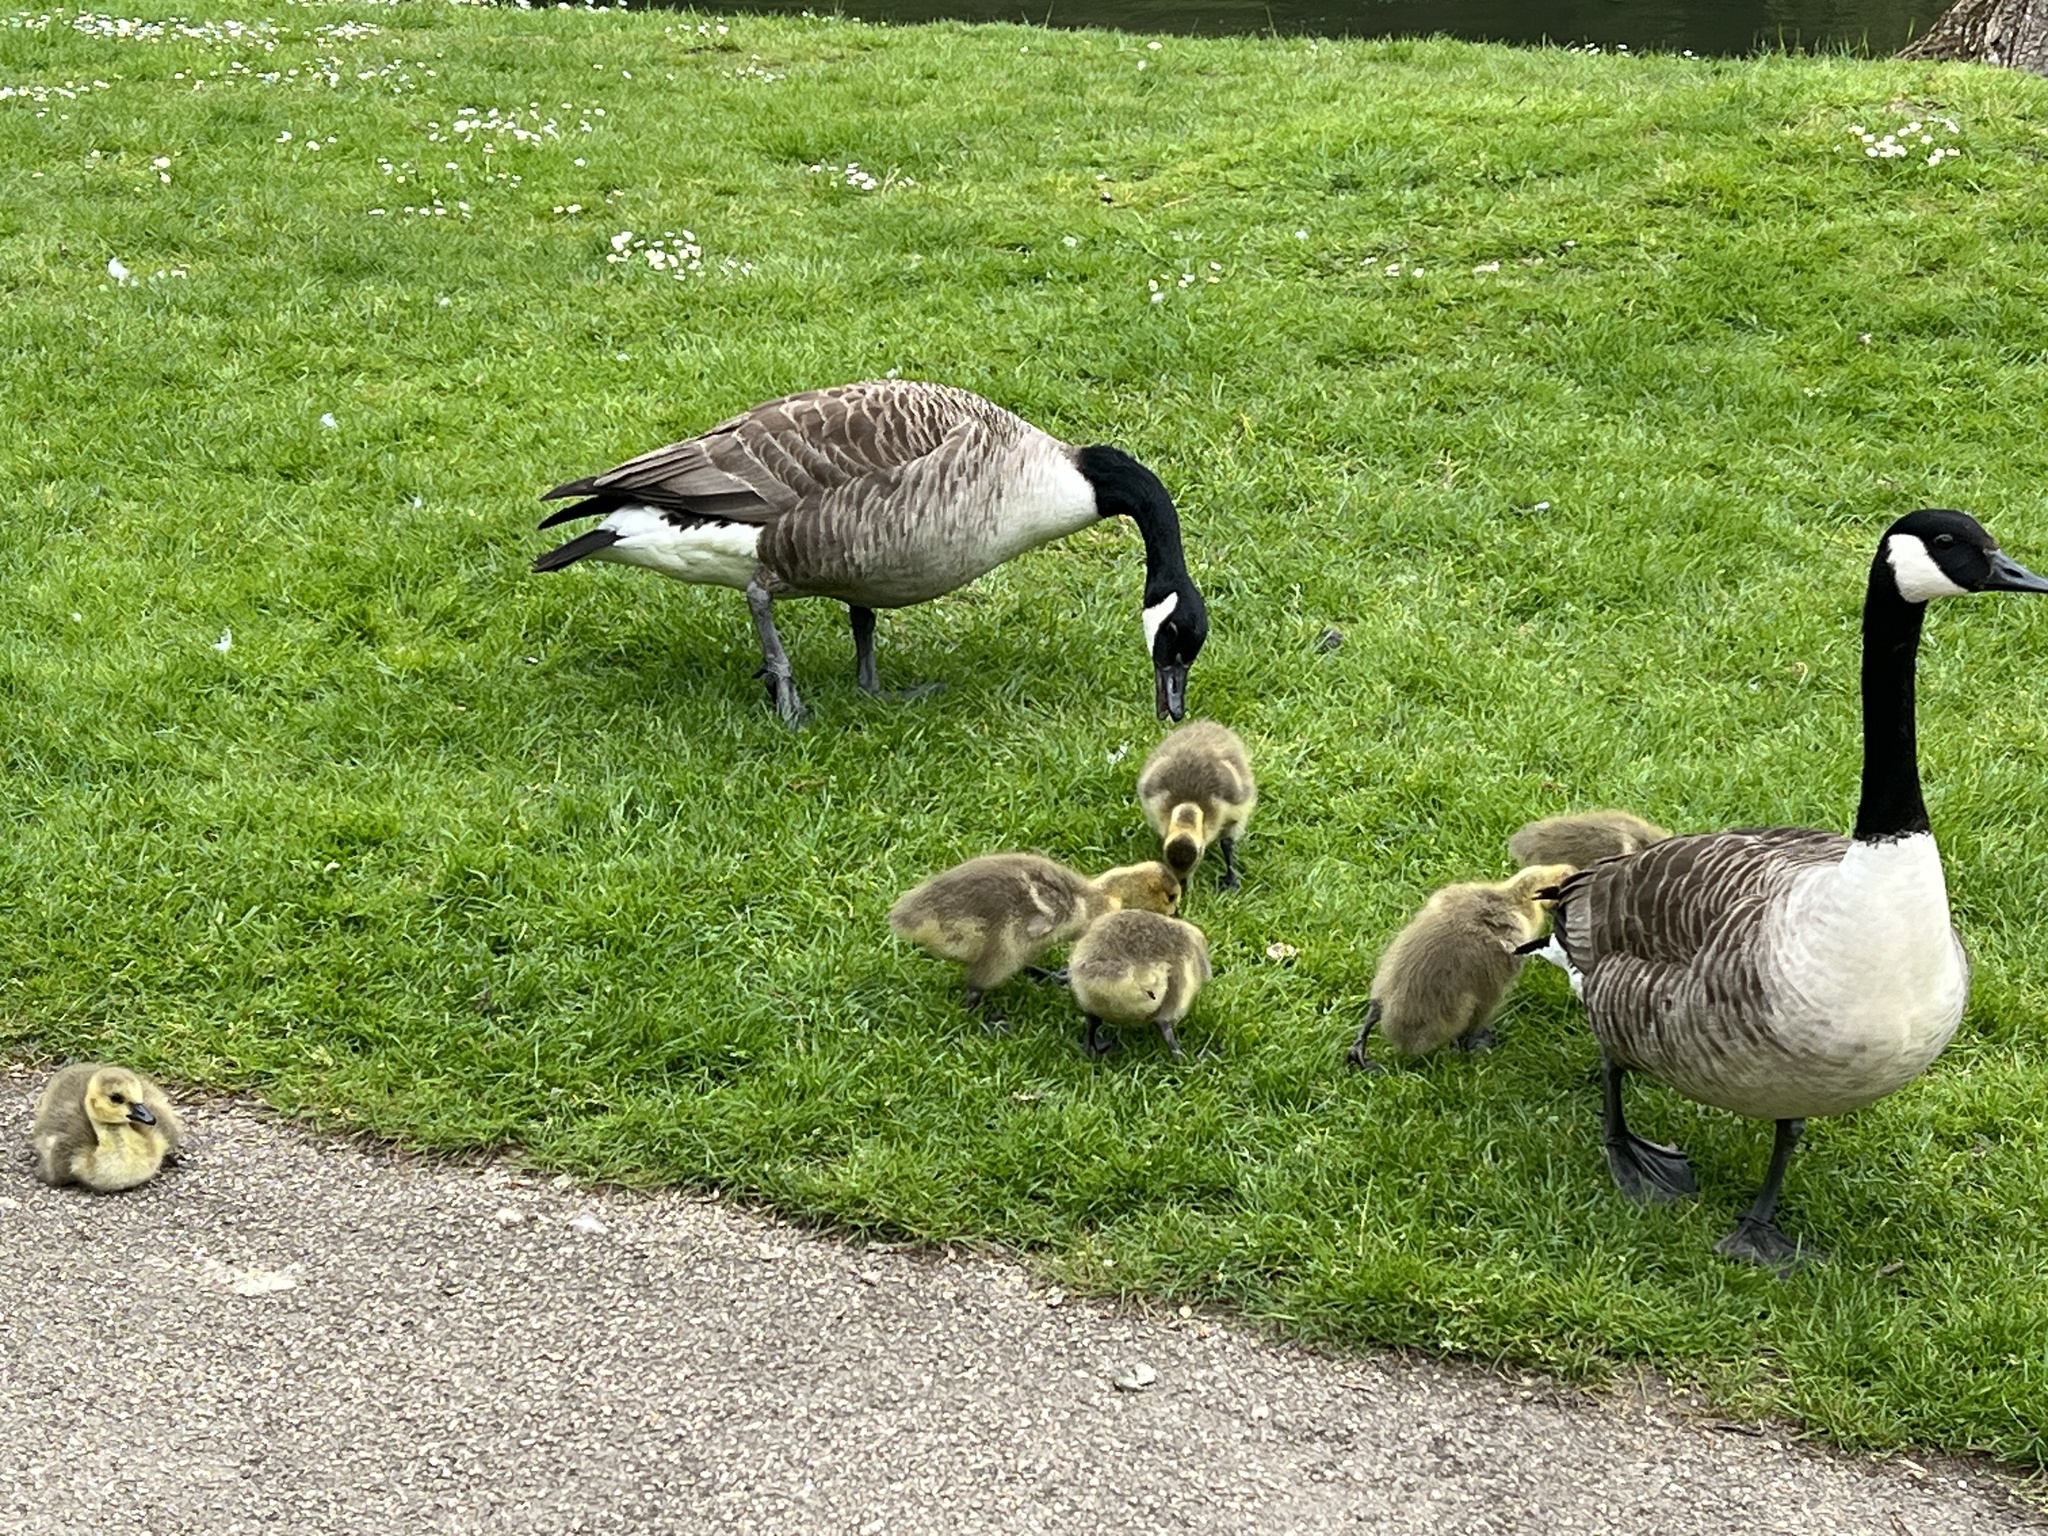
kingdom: Animalia
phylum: Chordata
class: Aves
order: Anseriformes
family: Anatidae
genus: Branta
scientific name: Branta canadensis
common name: Canada goose
